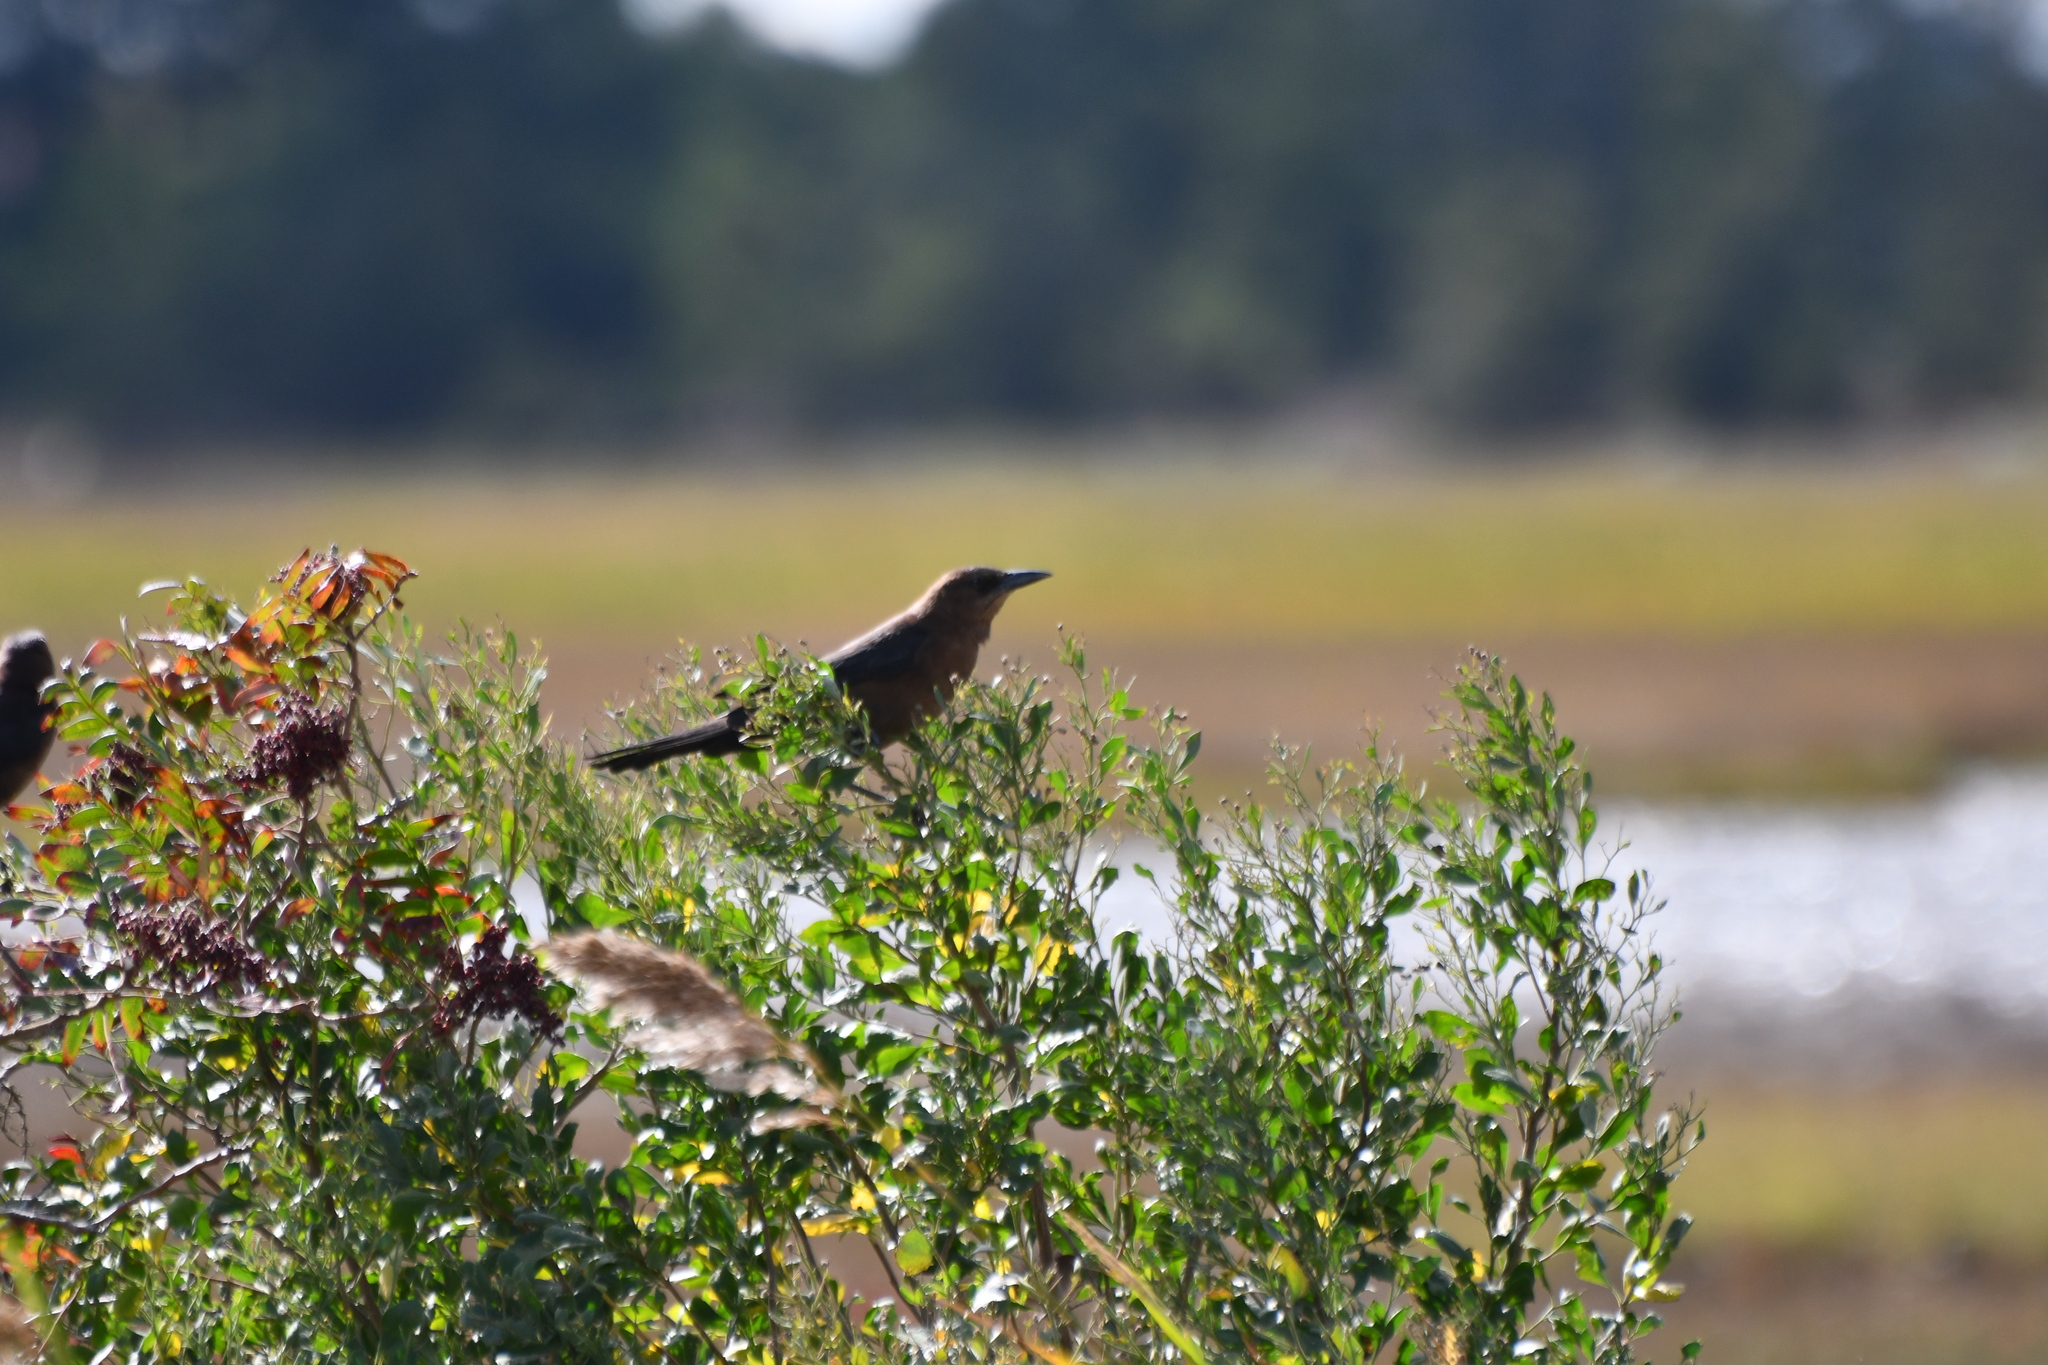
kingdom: Animalia
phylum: Chordata
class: Aves
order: Passeriformes
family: Icteridae
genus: Quiscalus
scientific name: Quiscalus major
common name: Boat-tailed grackle
